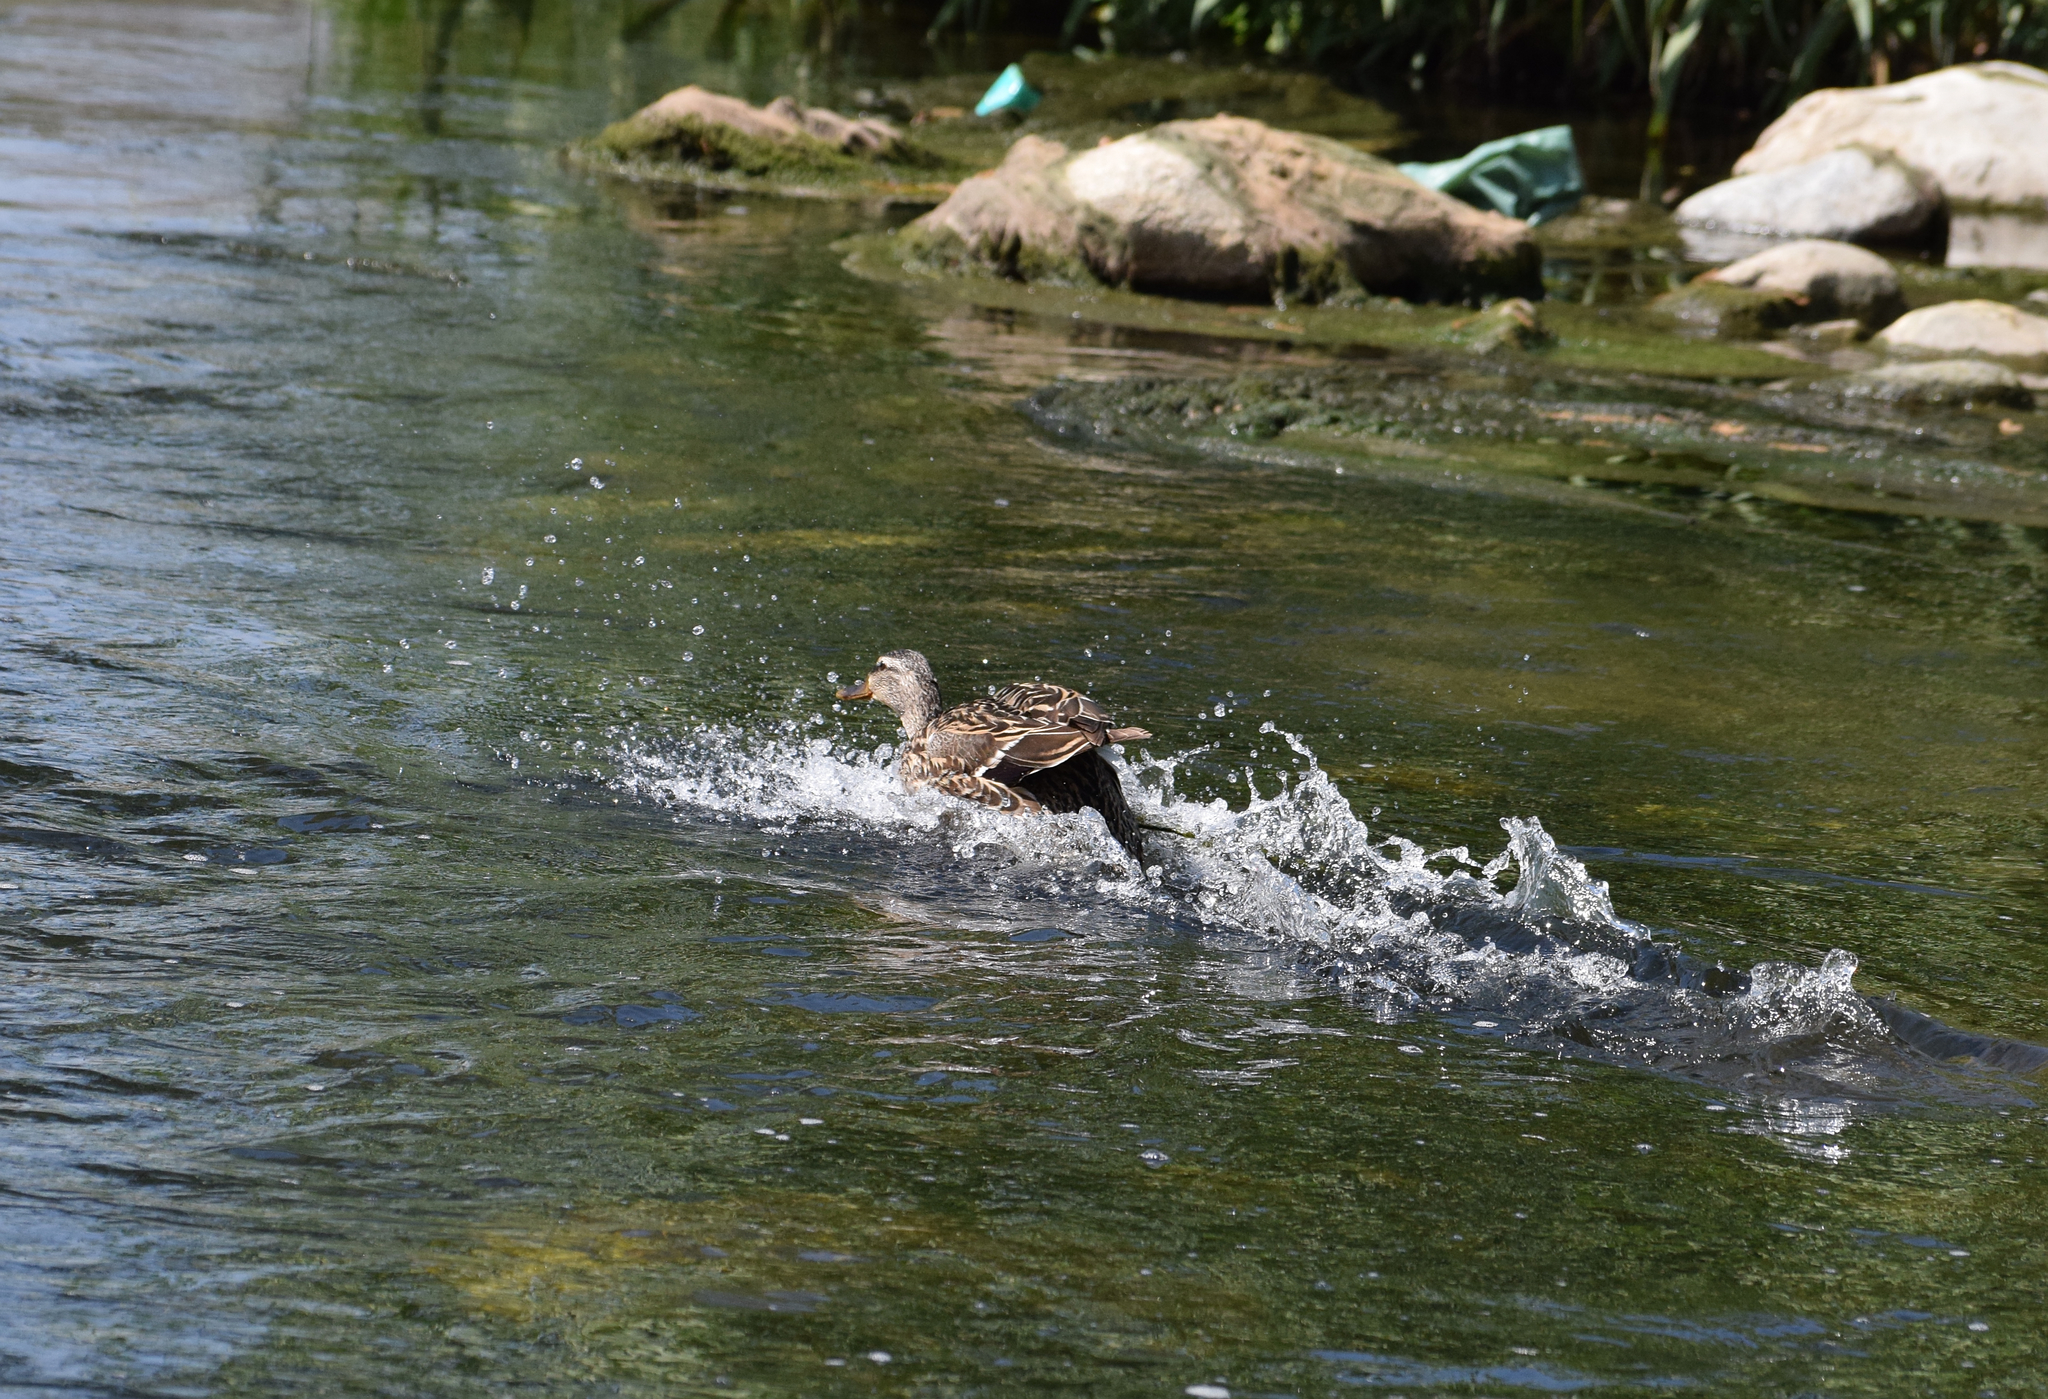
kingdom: Animalia
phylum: Chordata
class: Aves
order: Anseriformes
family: Anatidae
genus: Anas
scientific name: Anas platyrhynchos
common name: Mallard
